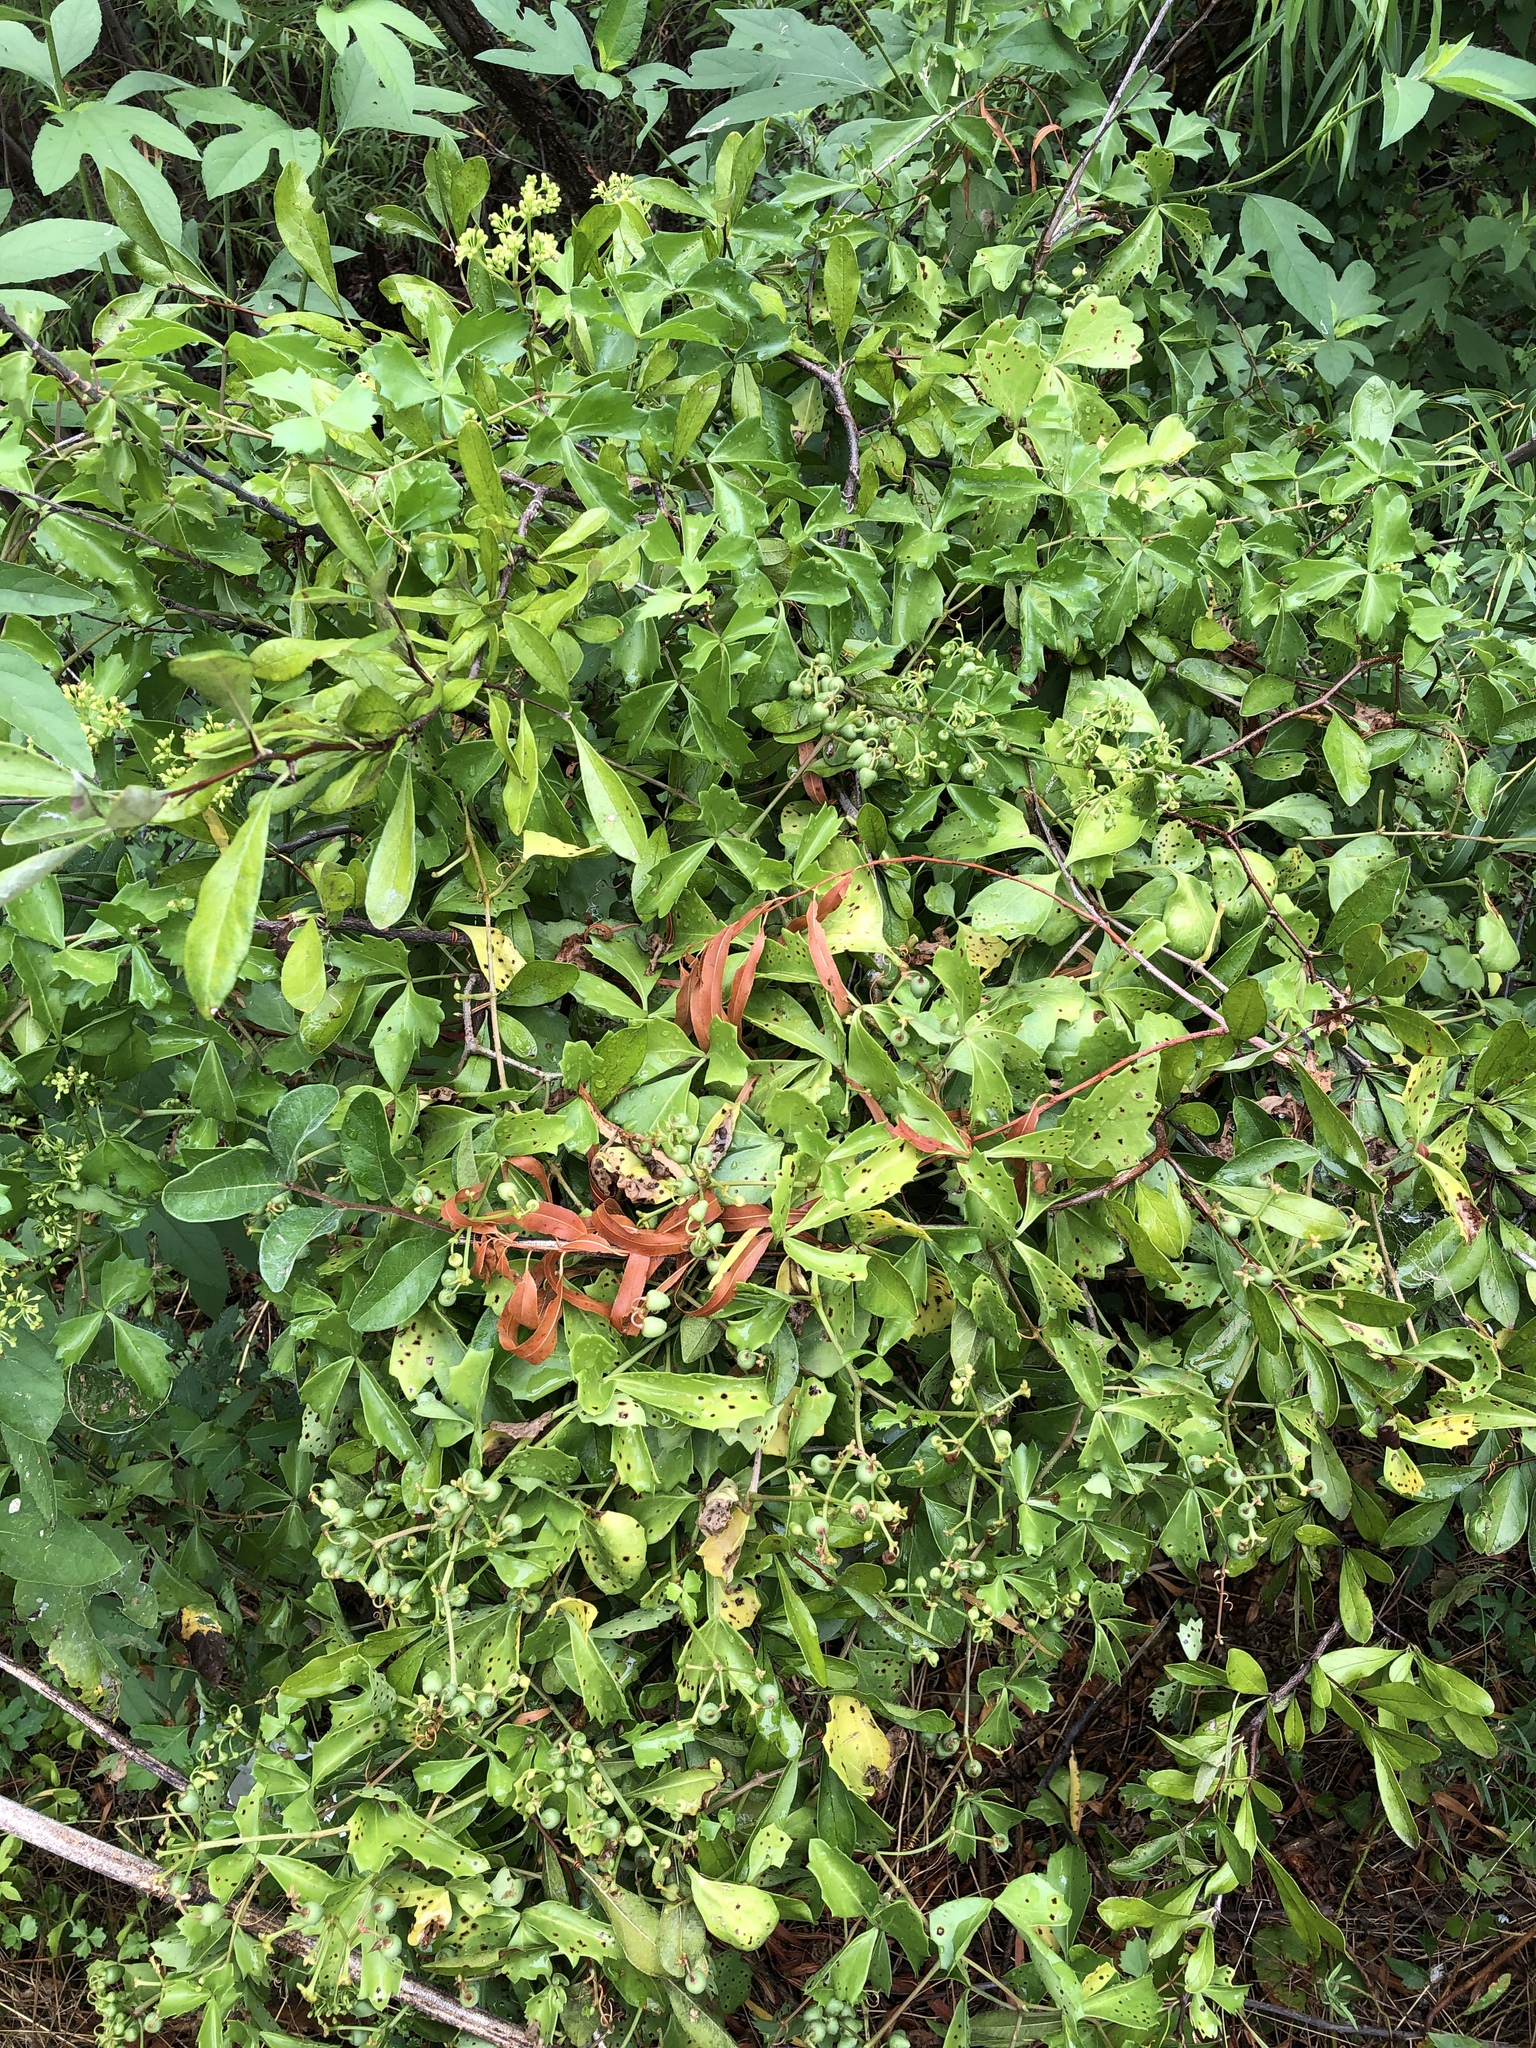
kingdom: Plantae
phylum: Tracheophyta
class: Magnoliopsida
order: Vitales
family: Vitaceae
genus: Cissus
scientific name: Cissus trifoliata
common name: Vine-sorrel
